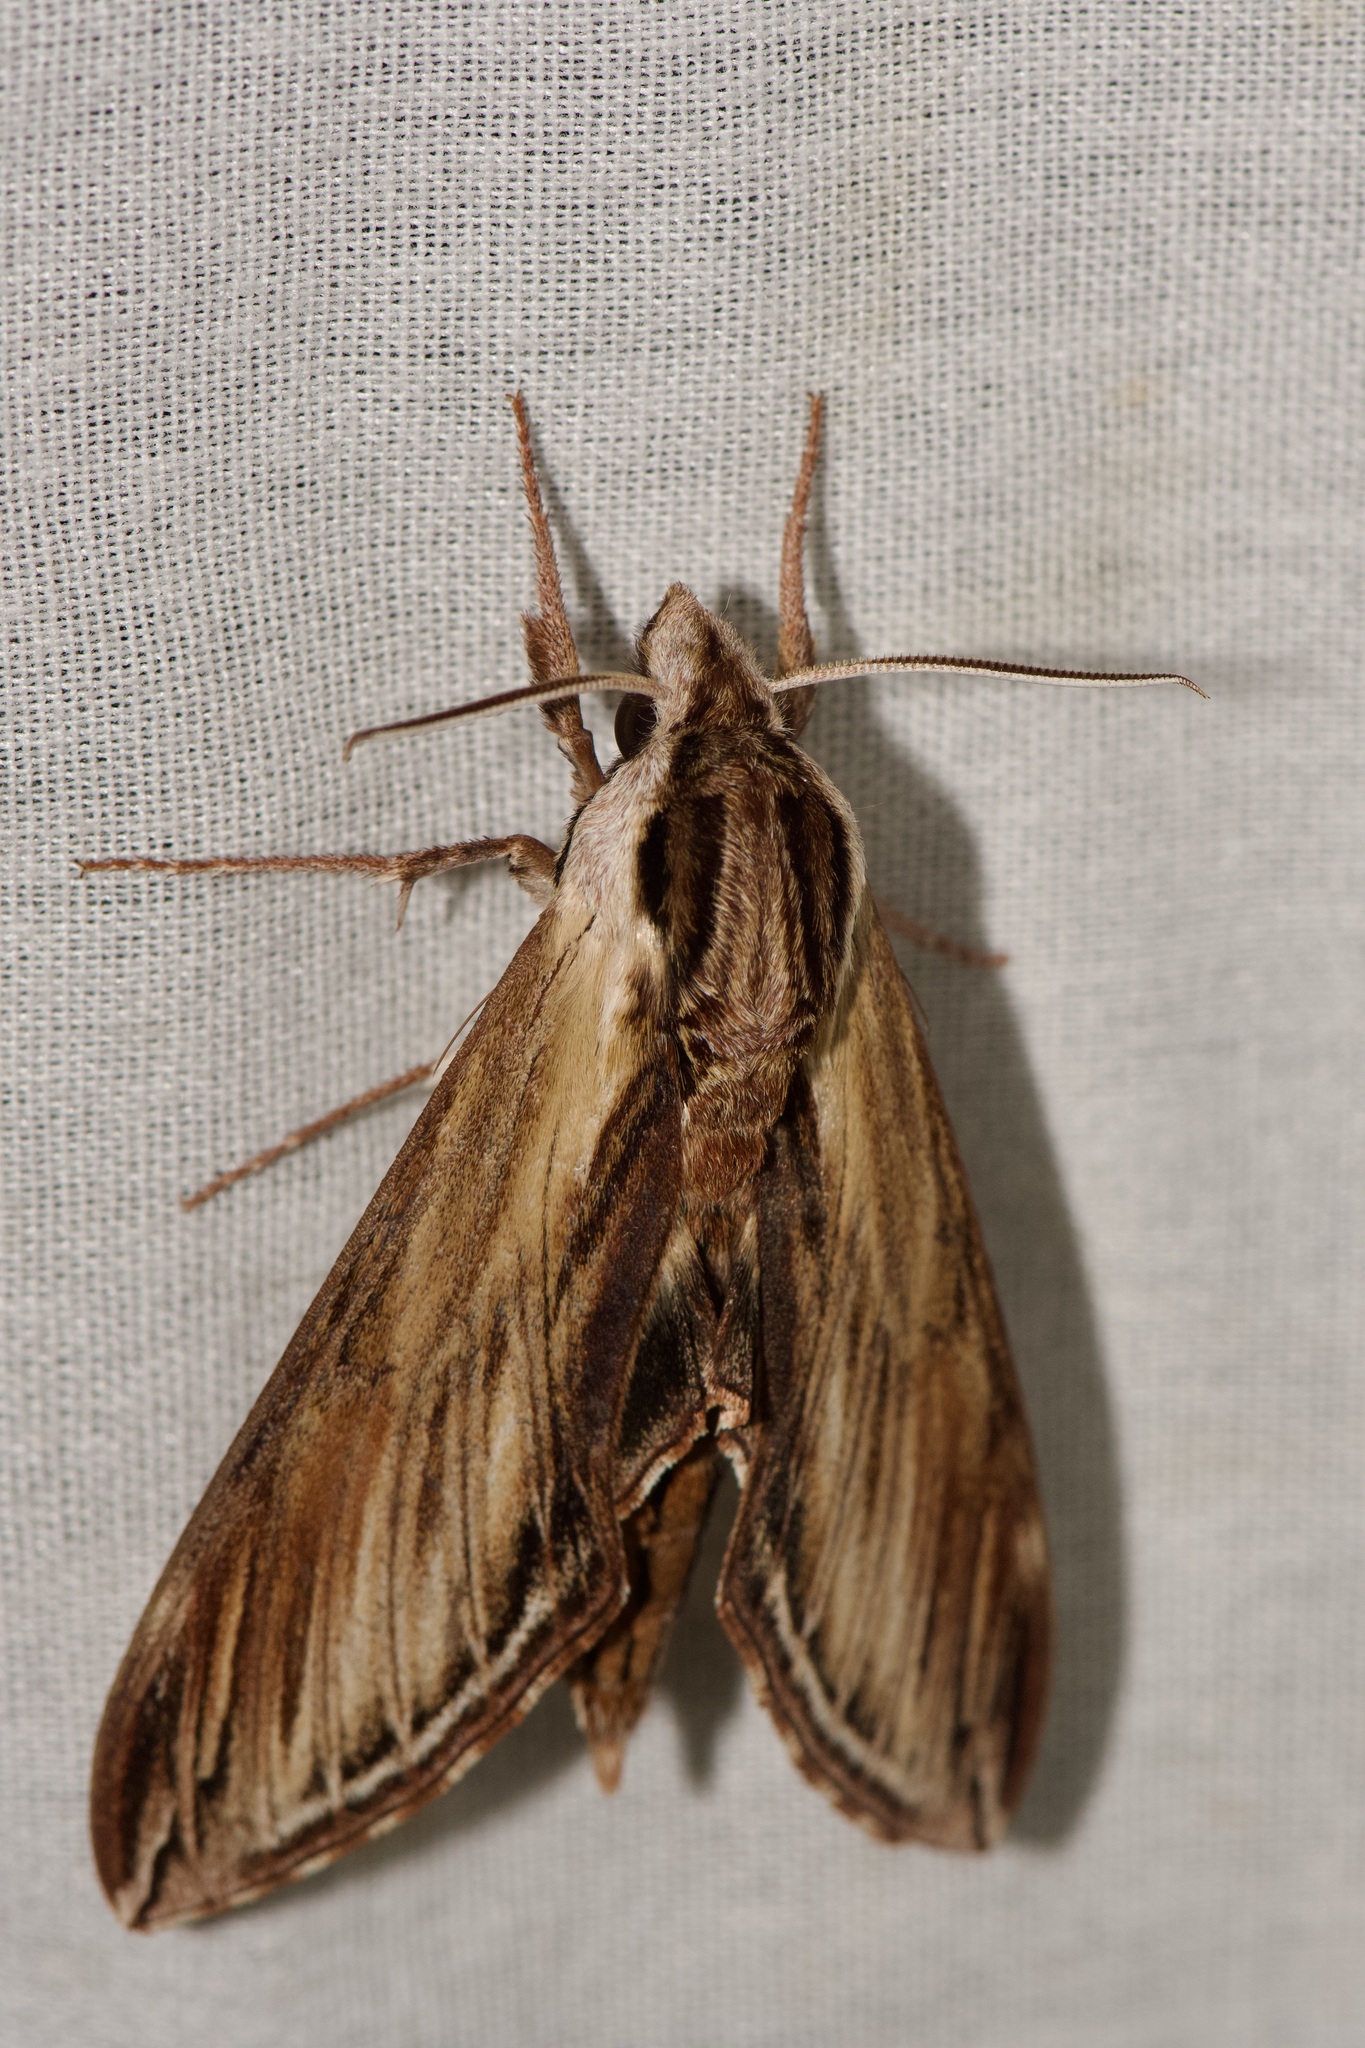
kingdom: Animalia
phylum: Arthropoda
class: Insecta
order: Lepidoptera
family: Sphingidae
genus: Sphinx
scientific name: Sphinx kalmiae
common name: Laurel sphinx
